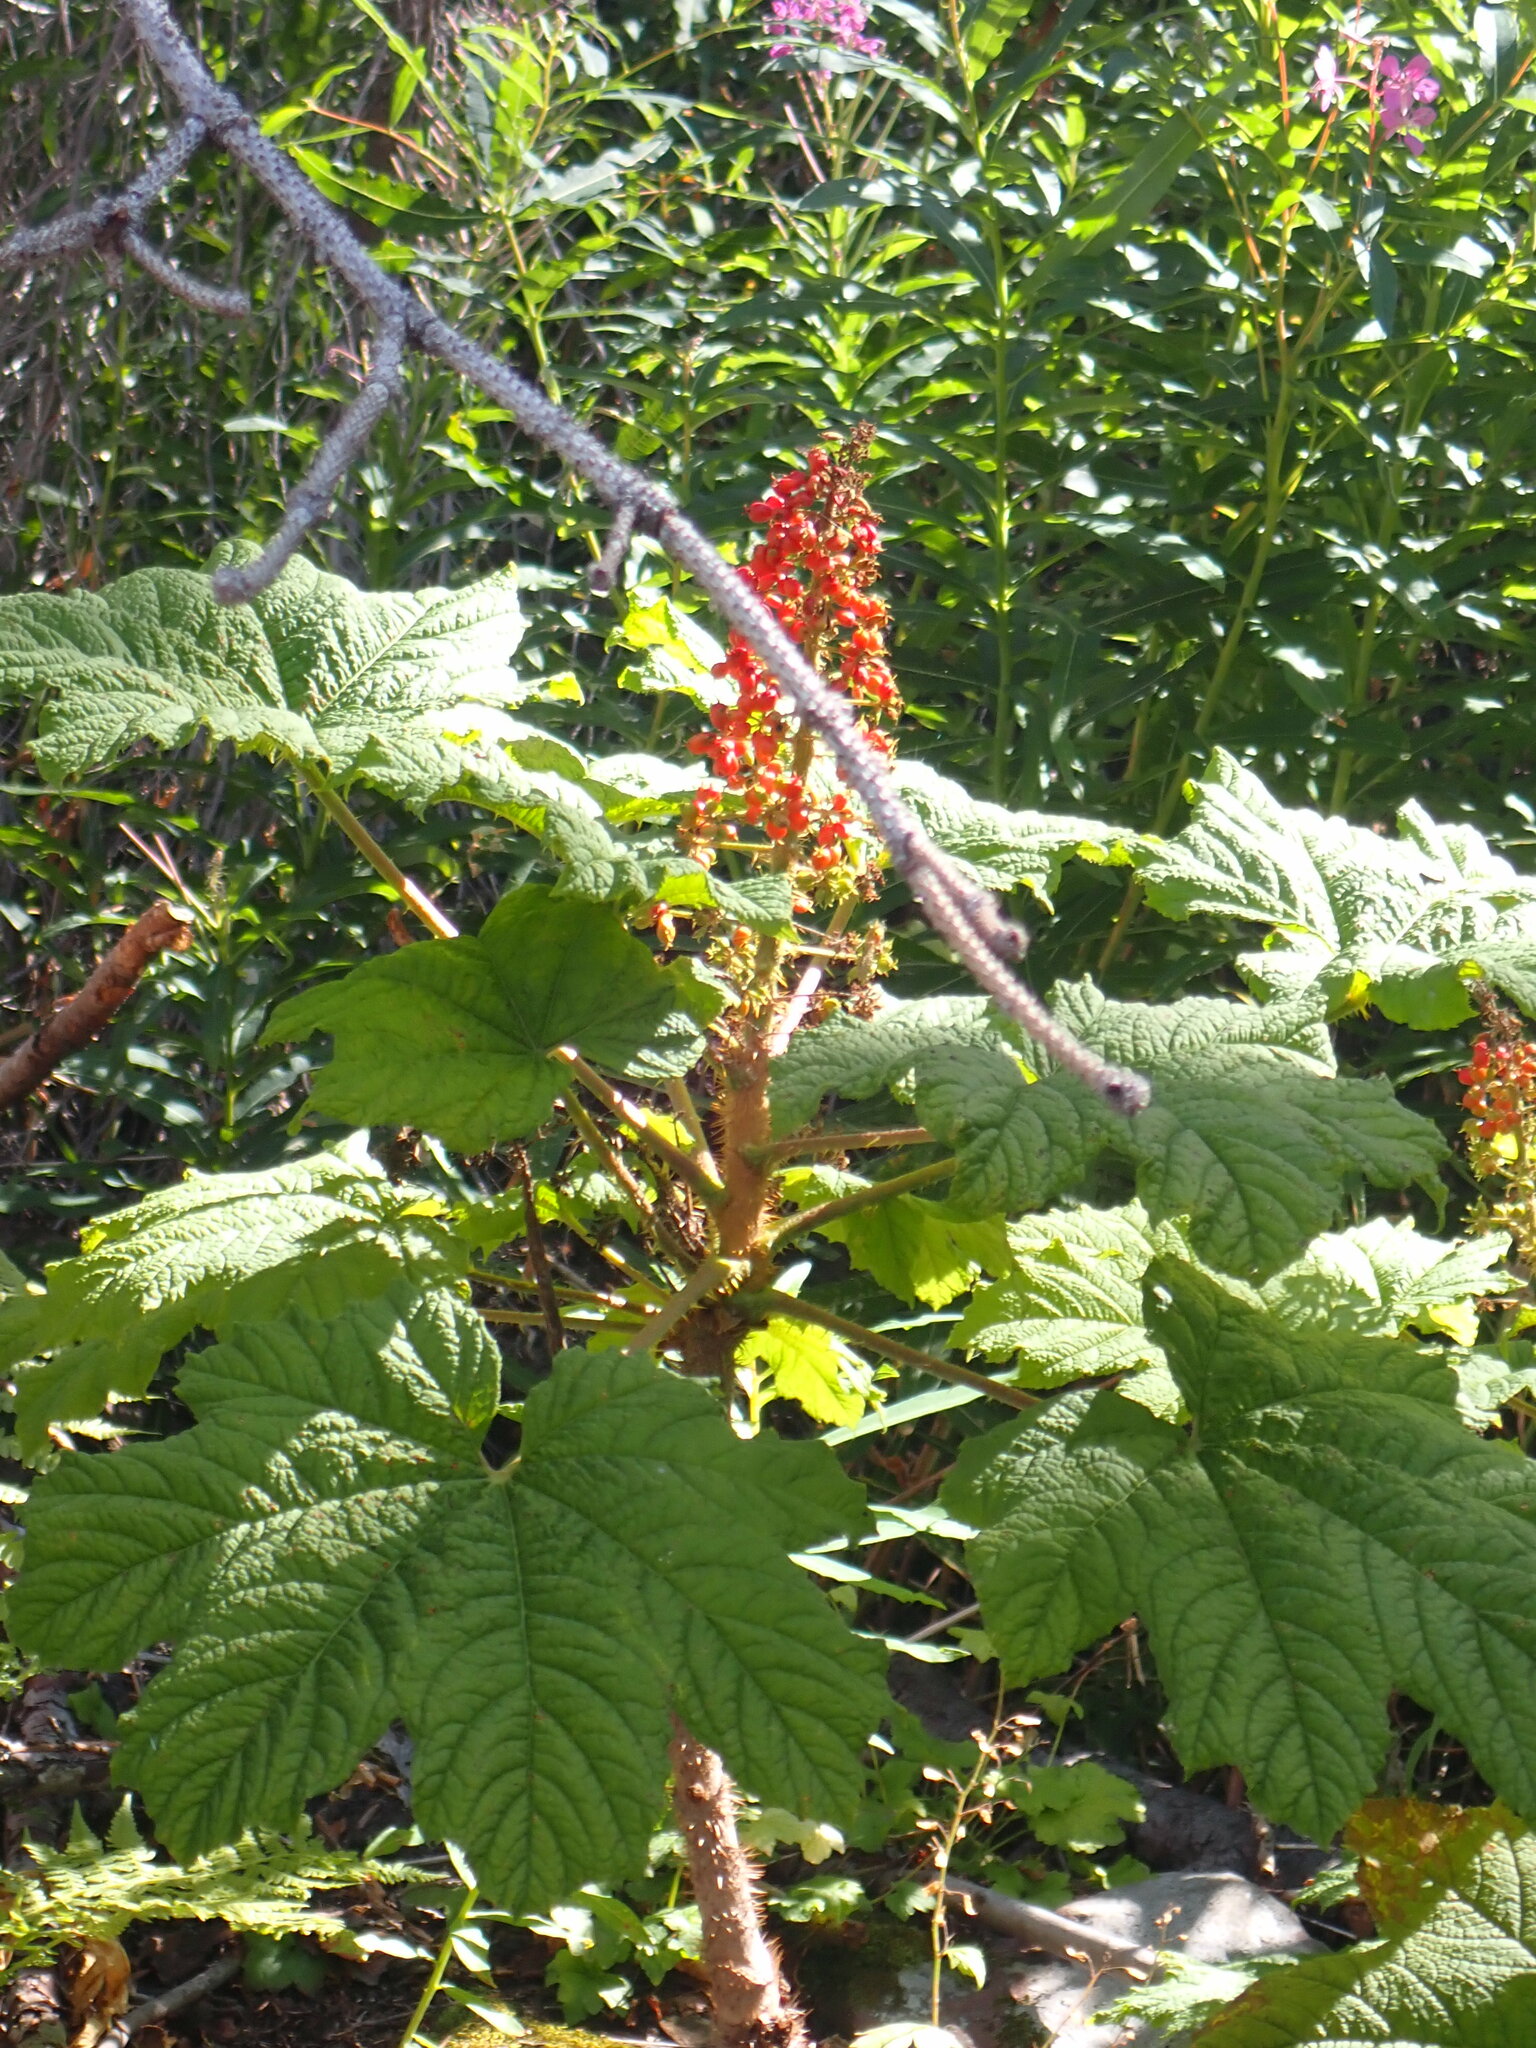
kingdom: Plantae
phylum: Tracheophyta
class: Magnoliopsida
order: Apiales
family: Araliaceae
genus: Oplopanax
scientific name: Oplopanax horridus
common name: Devil's walking-stick
